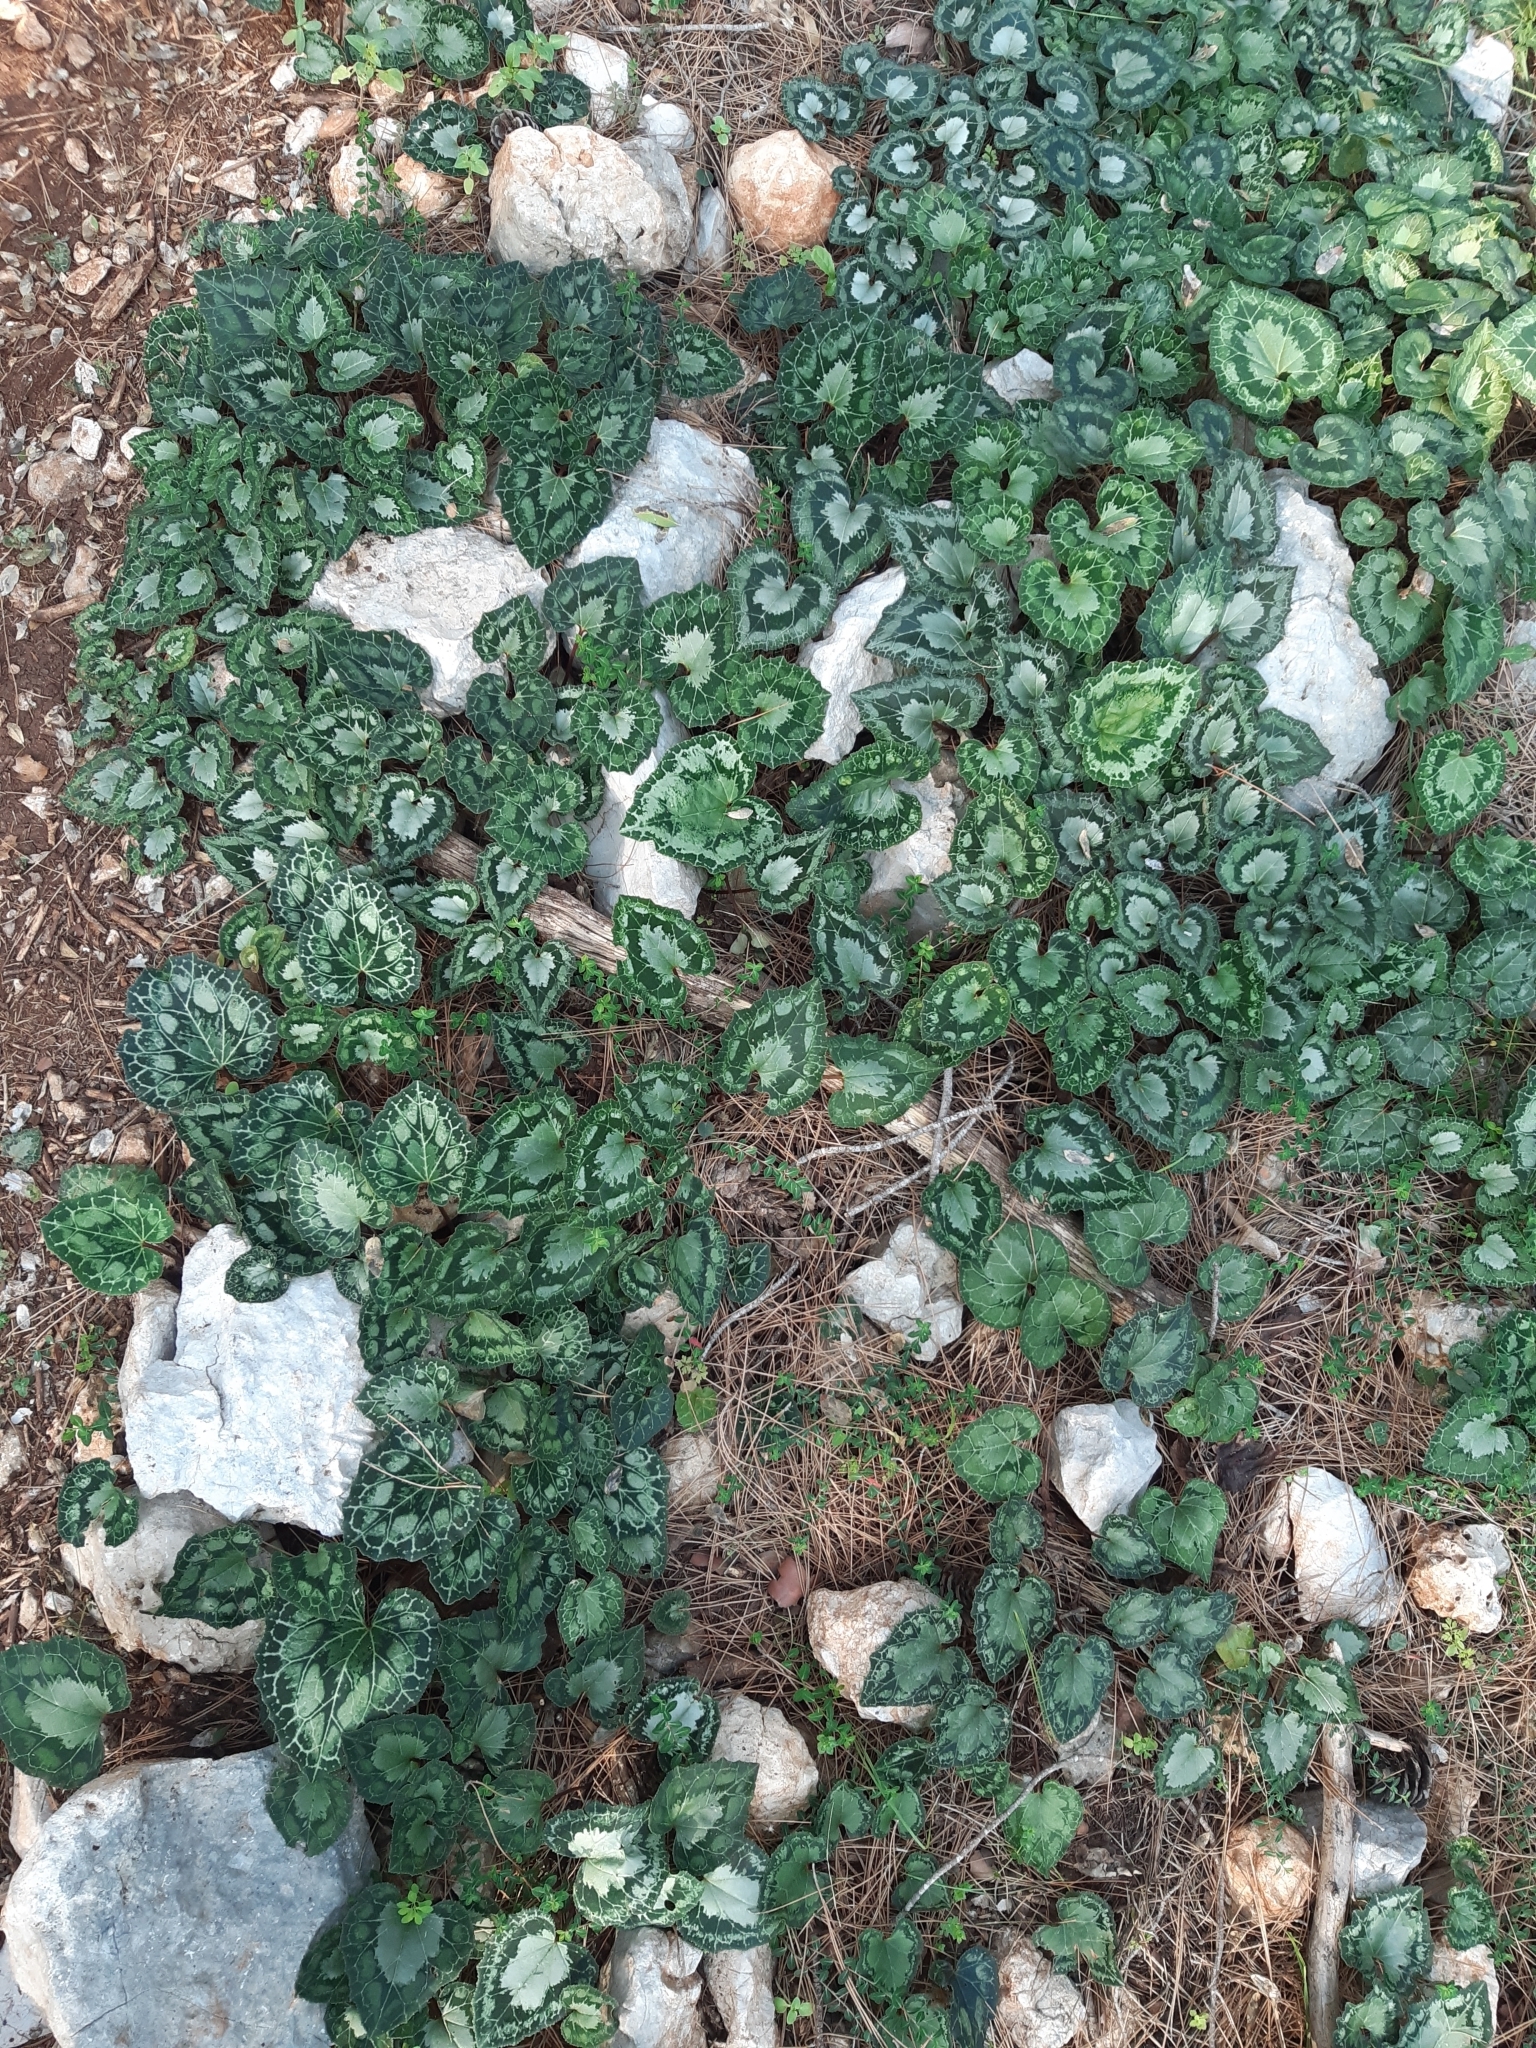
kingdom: Plantae
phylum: Tracheophyta
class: Magnoliopsida
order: Ericales
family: Primulaceae
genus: Cyclamen
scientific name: Cyclamen graecum
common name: Greek cyclamen
